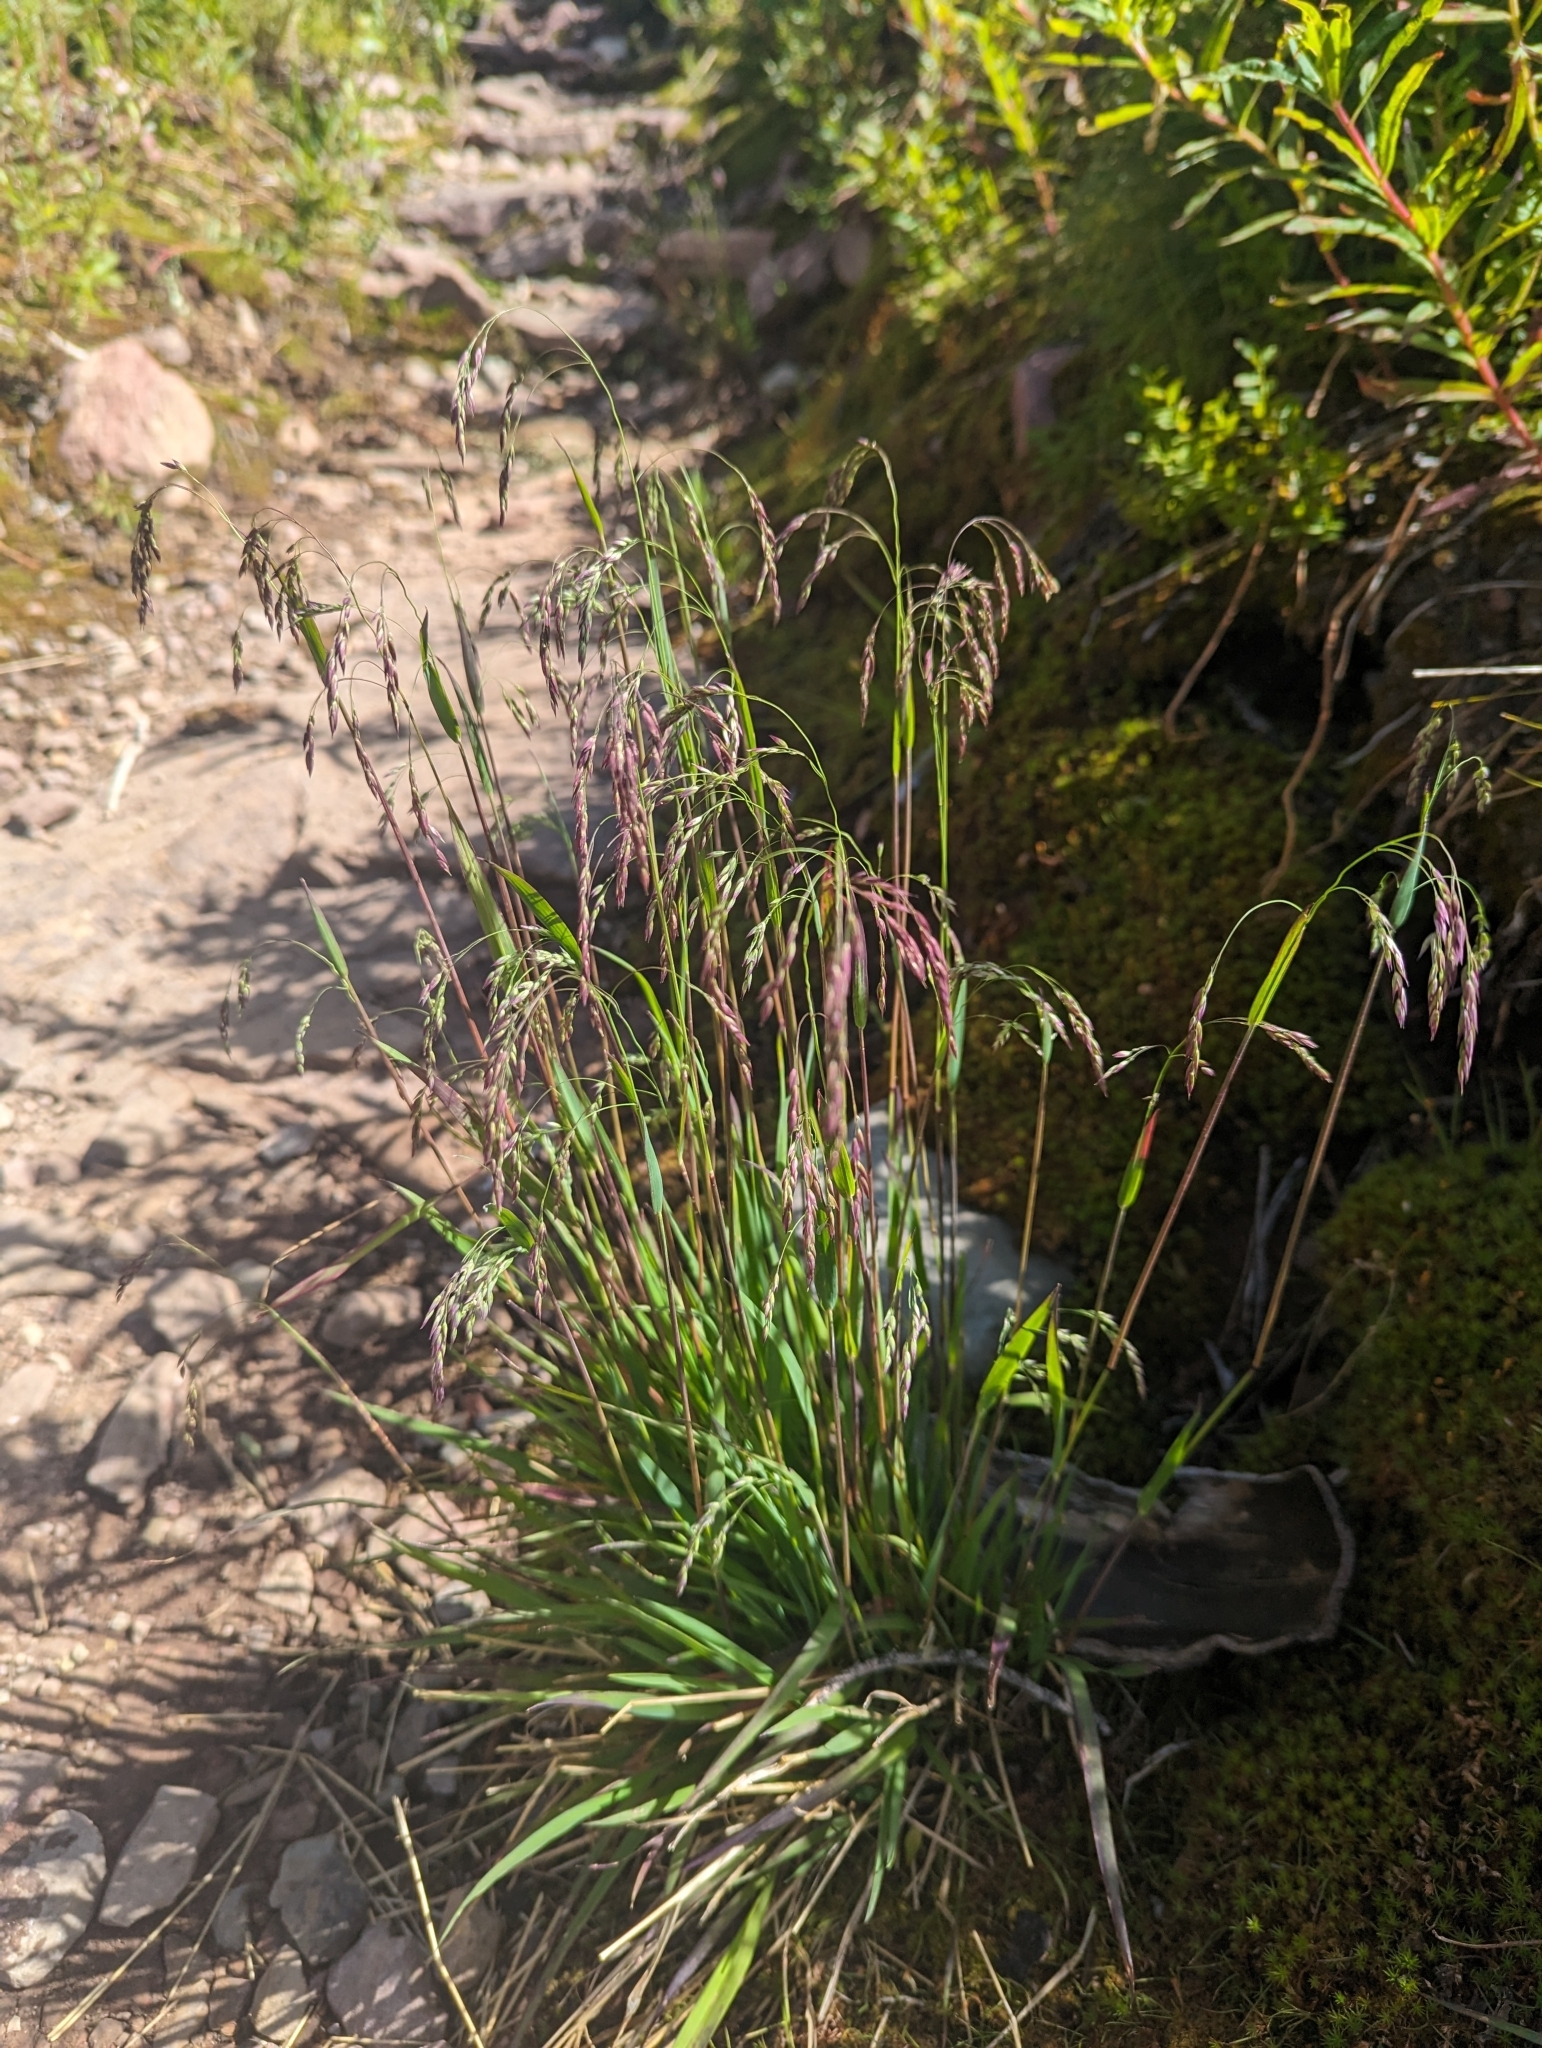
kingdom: Plantae
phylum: Tracheophyta
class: Liliopsida
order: Poales
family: Poaceae
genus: Vahlodea
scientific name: Vahlodea atropurpurea
